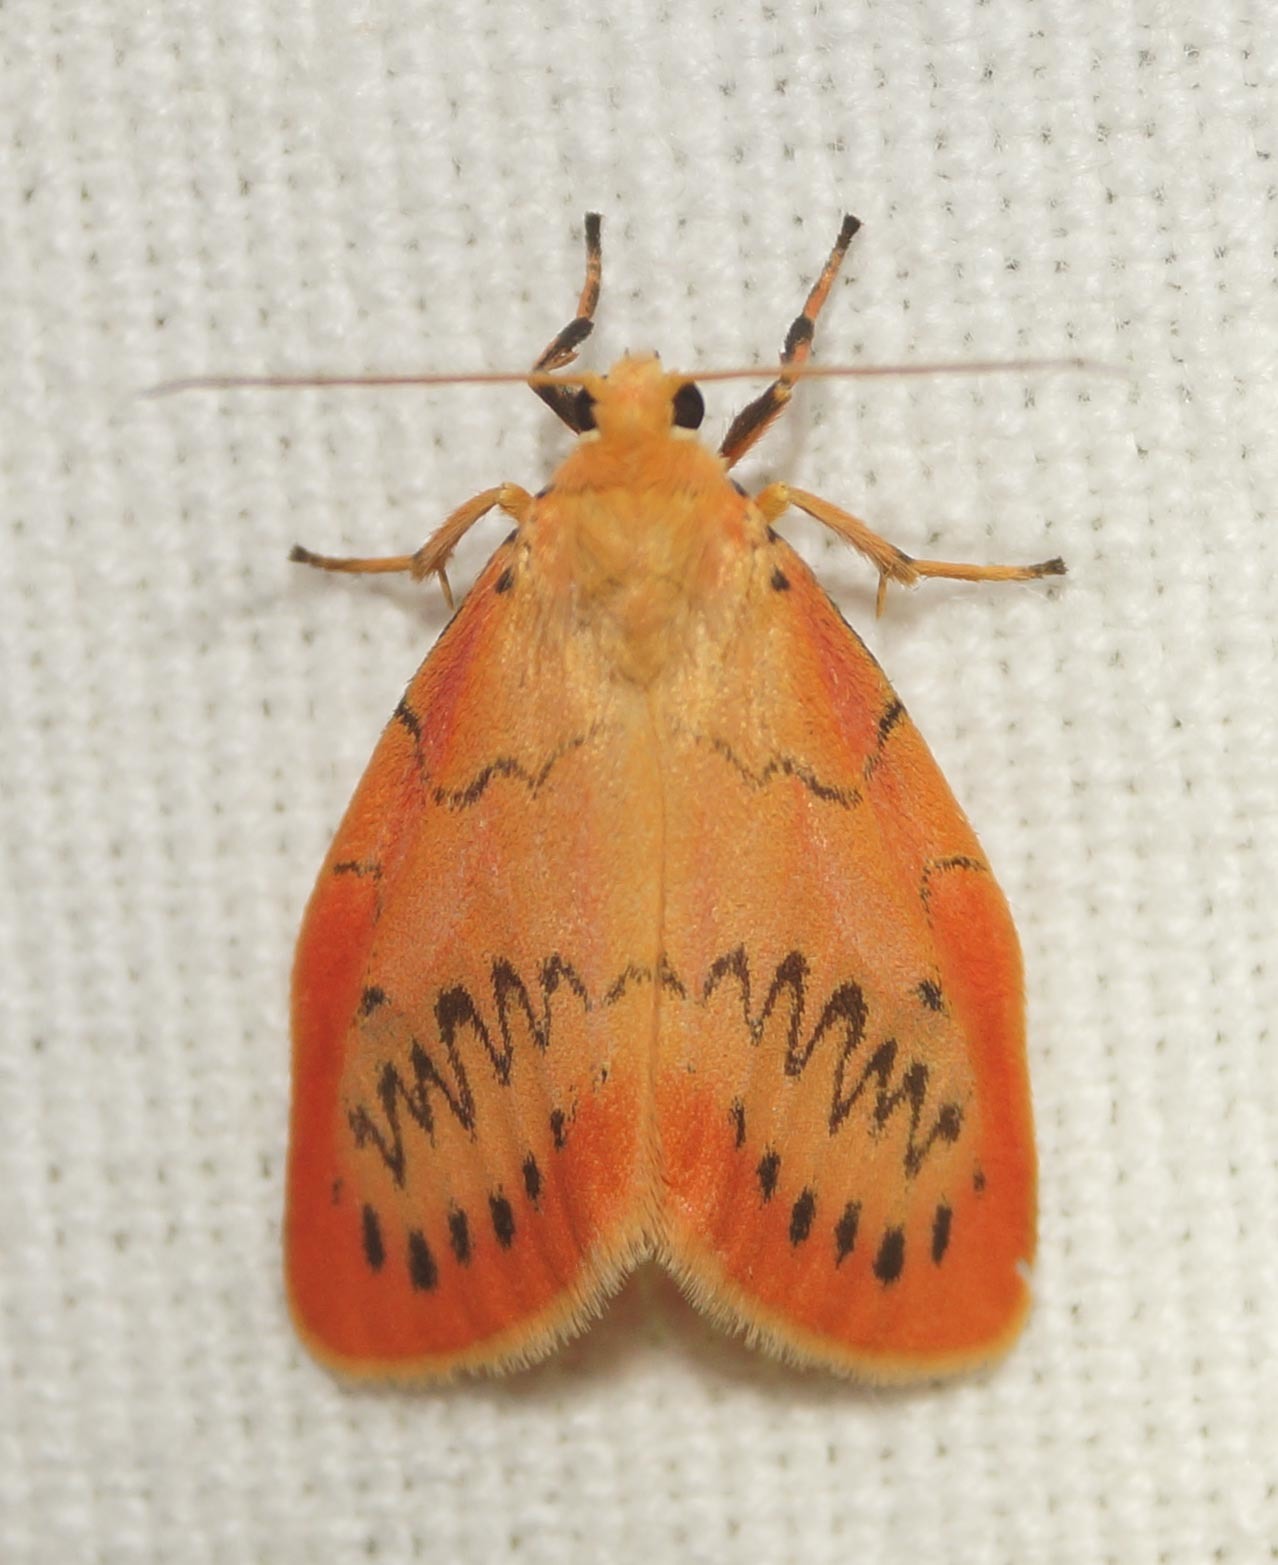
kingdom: Animalia
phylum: Arthropoda
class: Insecta
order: Lepidoptera
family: Erebidae
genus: Miltochrista
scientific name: Miltochrista miniata
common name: Rosy footman
